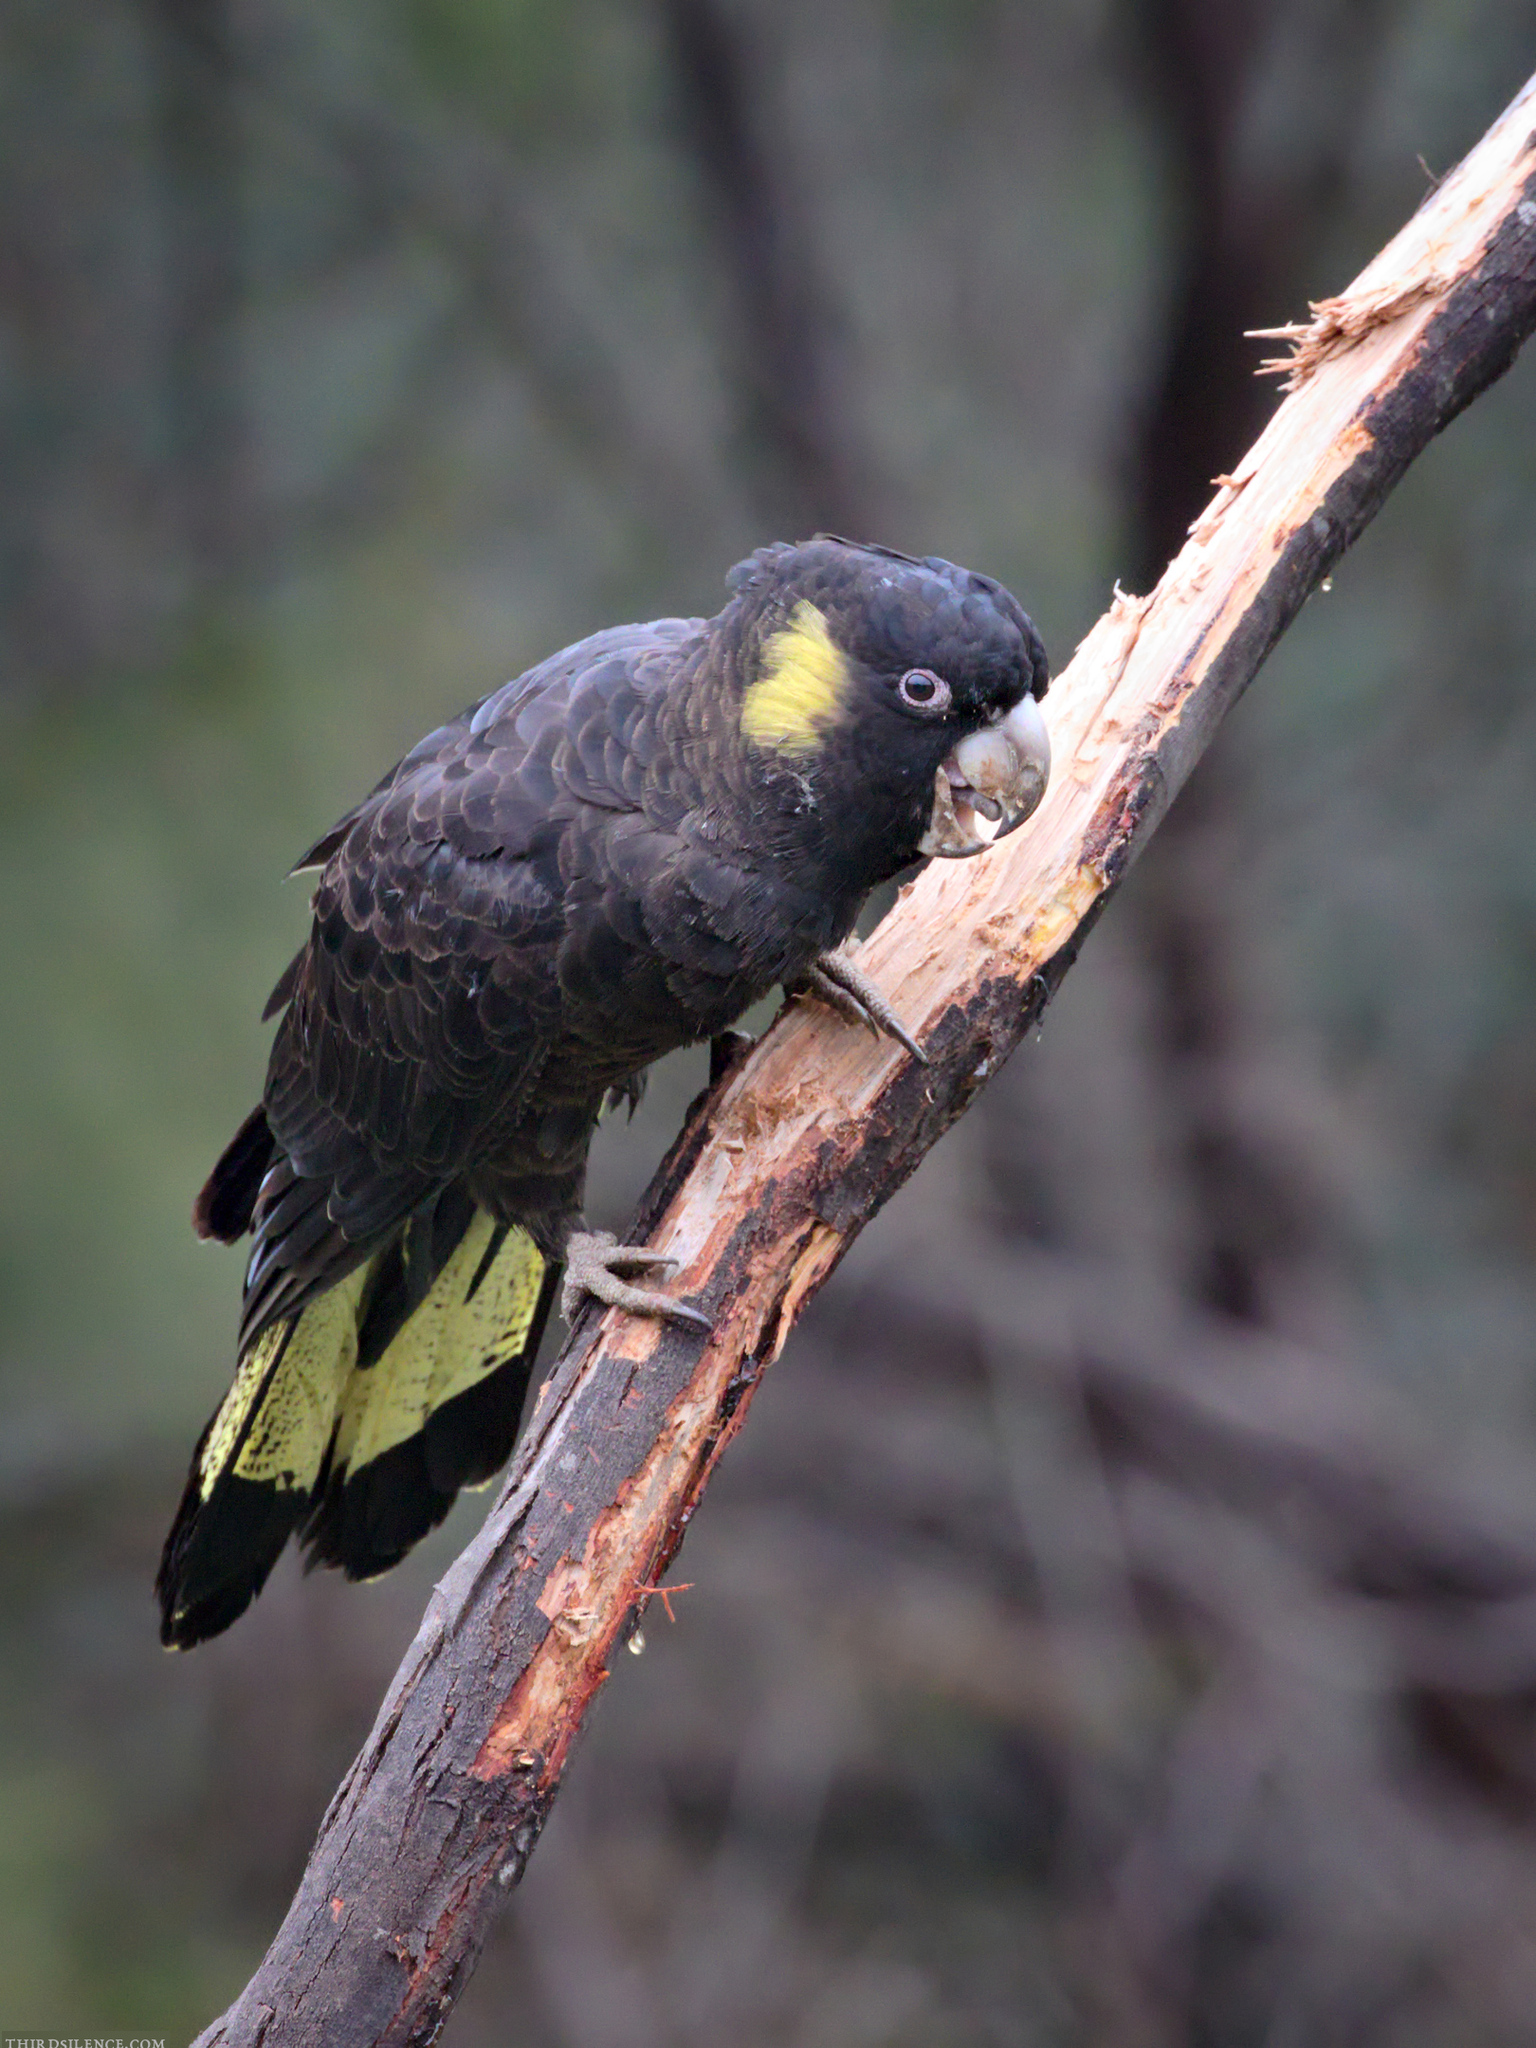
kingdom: Animalia
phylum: Chordata
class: Aves
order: Psittaciformes
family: Cacatuidae
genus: Zanda
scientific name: Zanda funerea
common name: Yellow-tailed black-cockatoo
